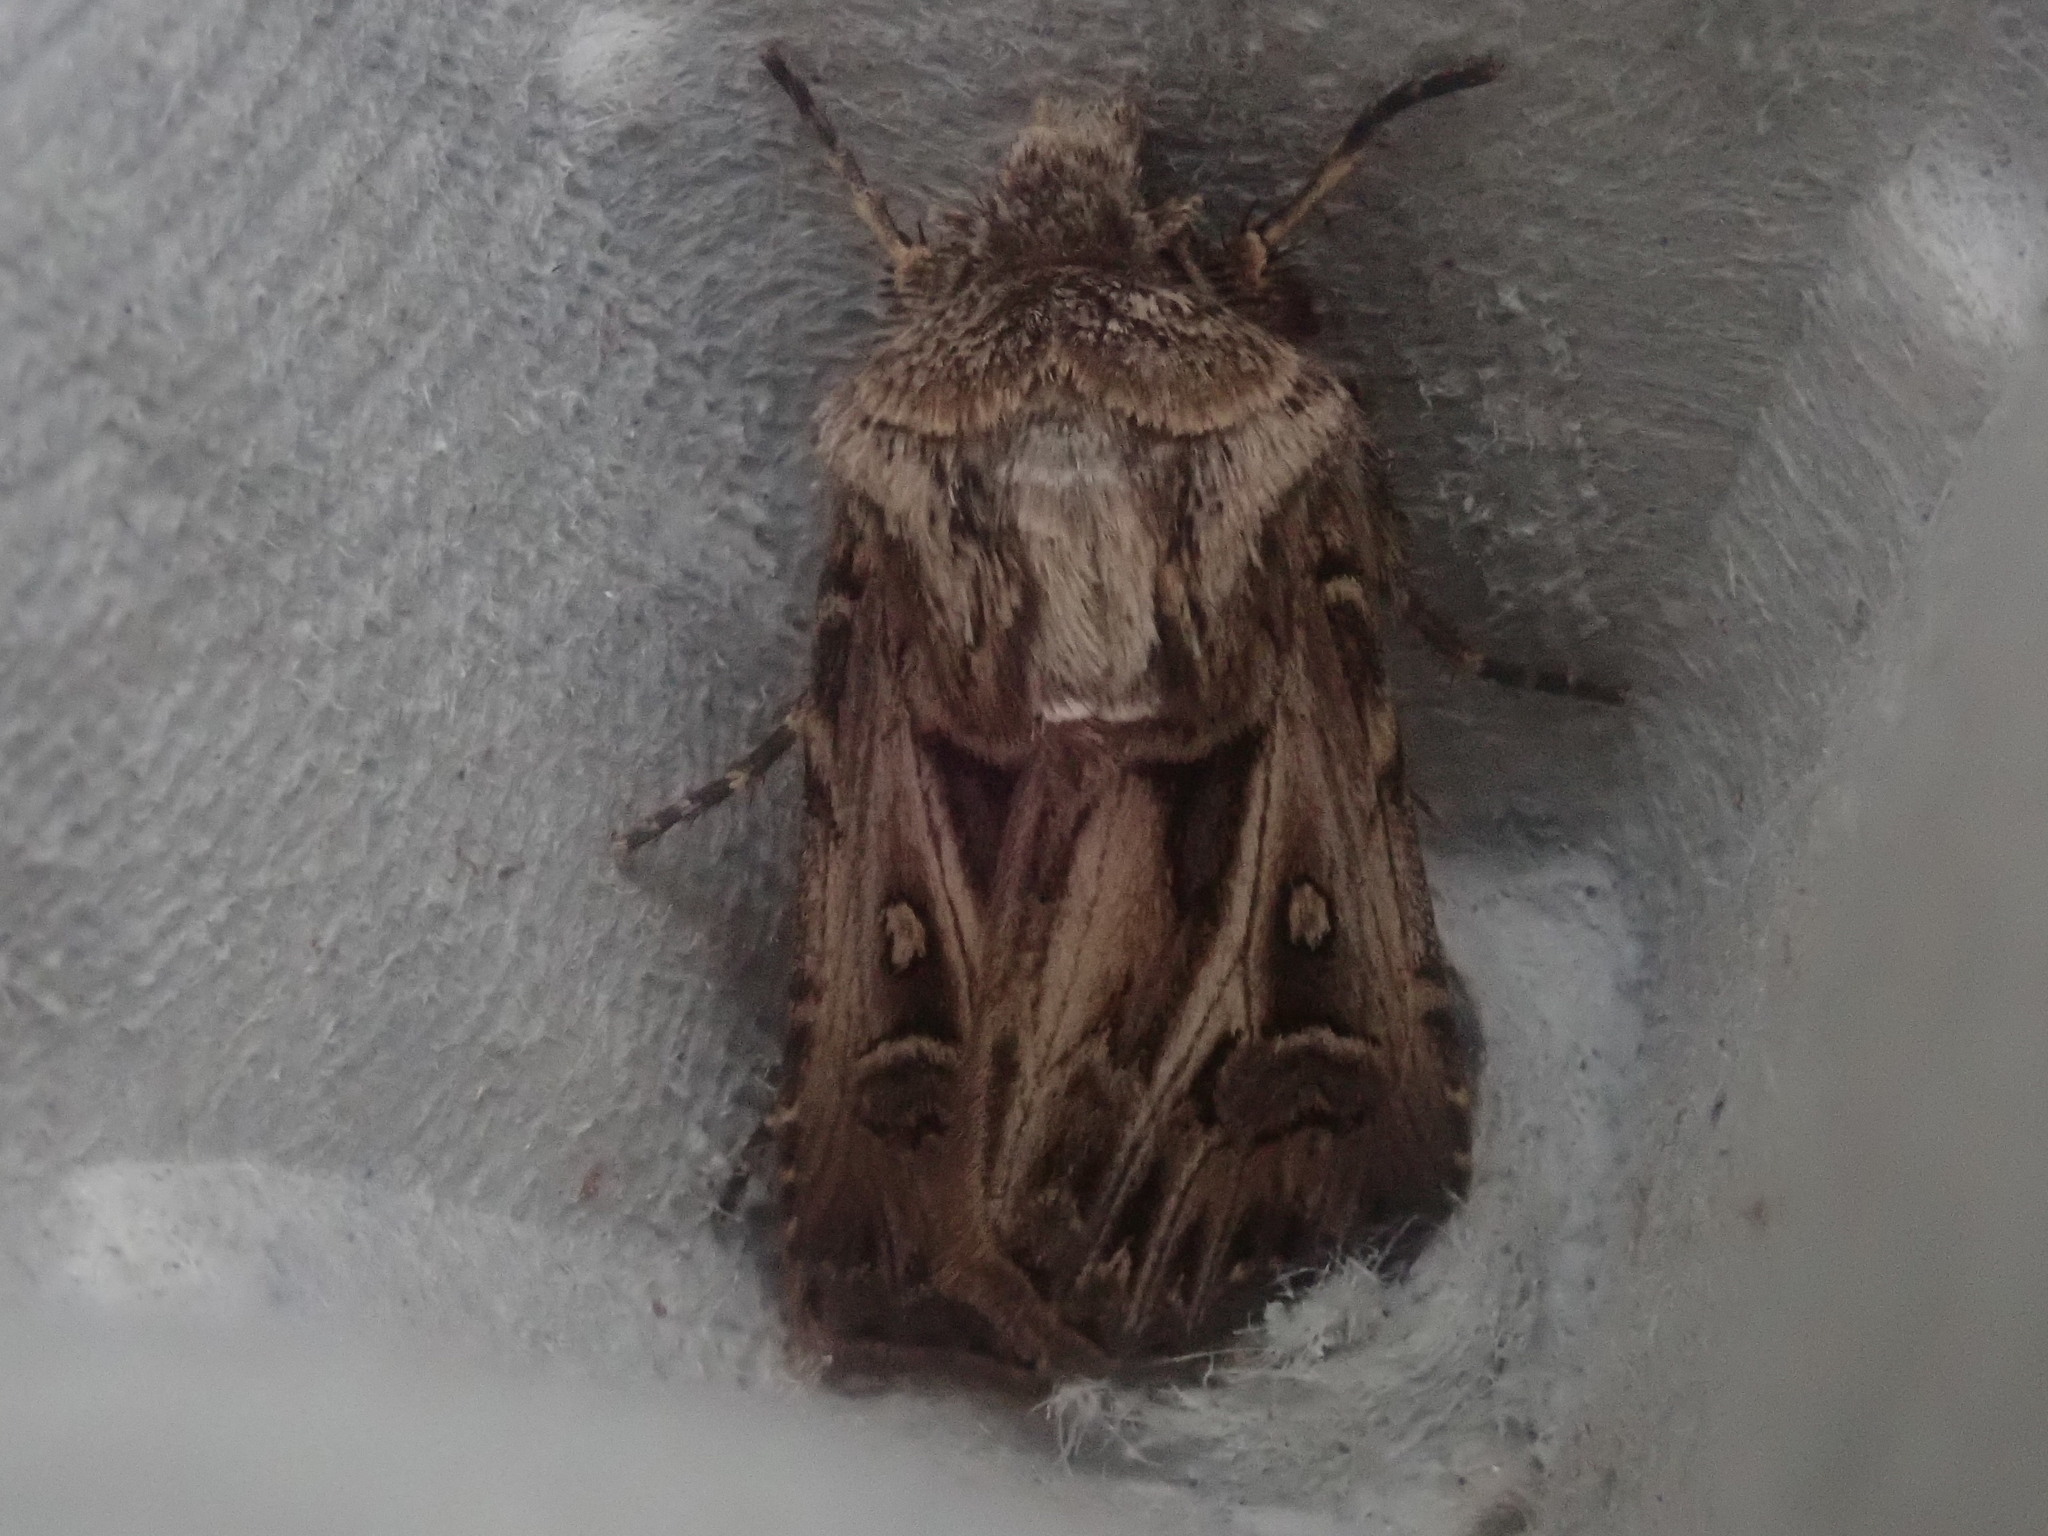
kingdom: Animalia
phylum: Arthropoda
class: Insecta
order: Lepidoptera
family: Noctuidae
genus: Agrotis
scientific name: Agrotis gladiaria
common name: Claybacked cutworm
